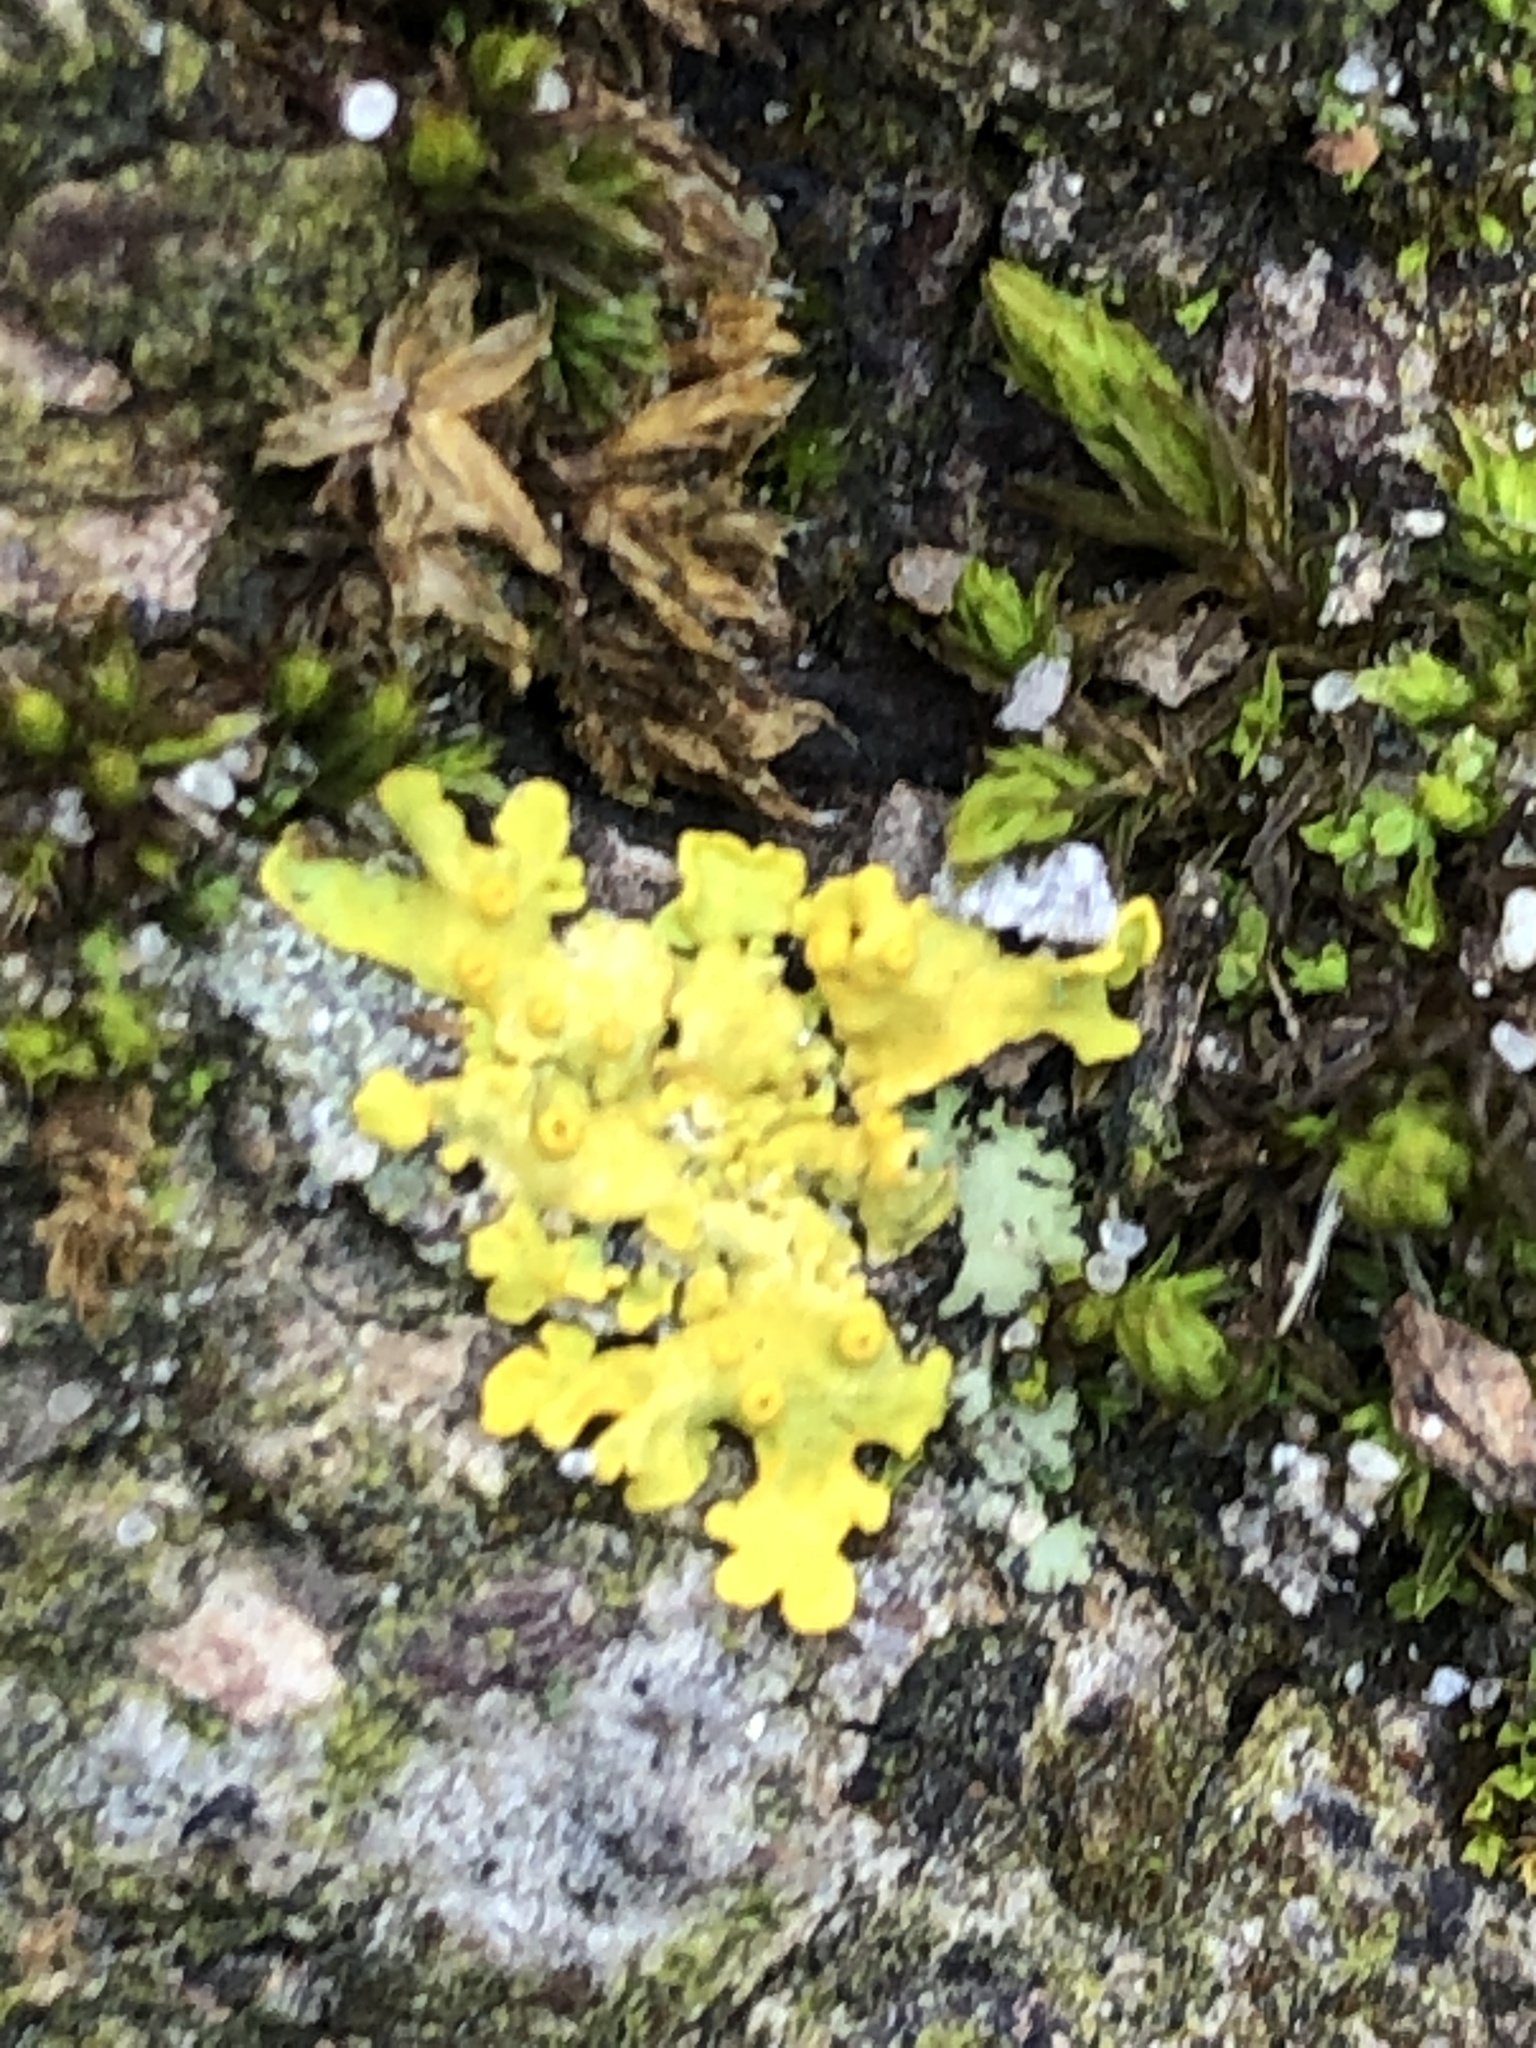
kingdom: Fungi
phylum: Ascomycota
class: Lecanoromycetes
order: Teloschistales
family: Teloschistaceae
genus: Xanthoria
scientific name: Xanthoria parietina
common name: Common orange lichen
